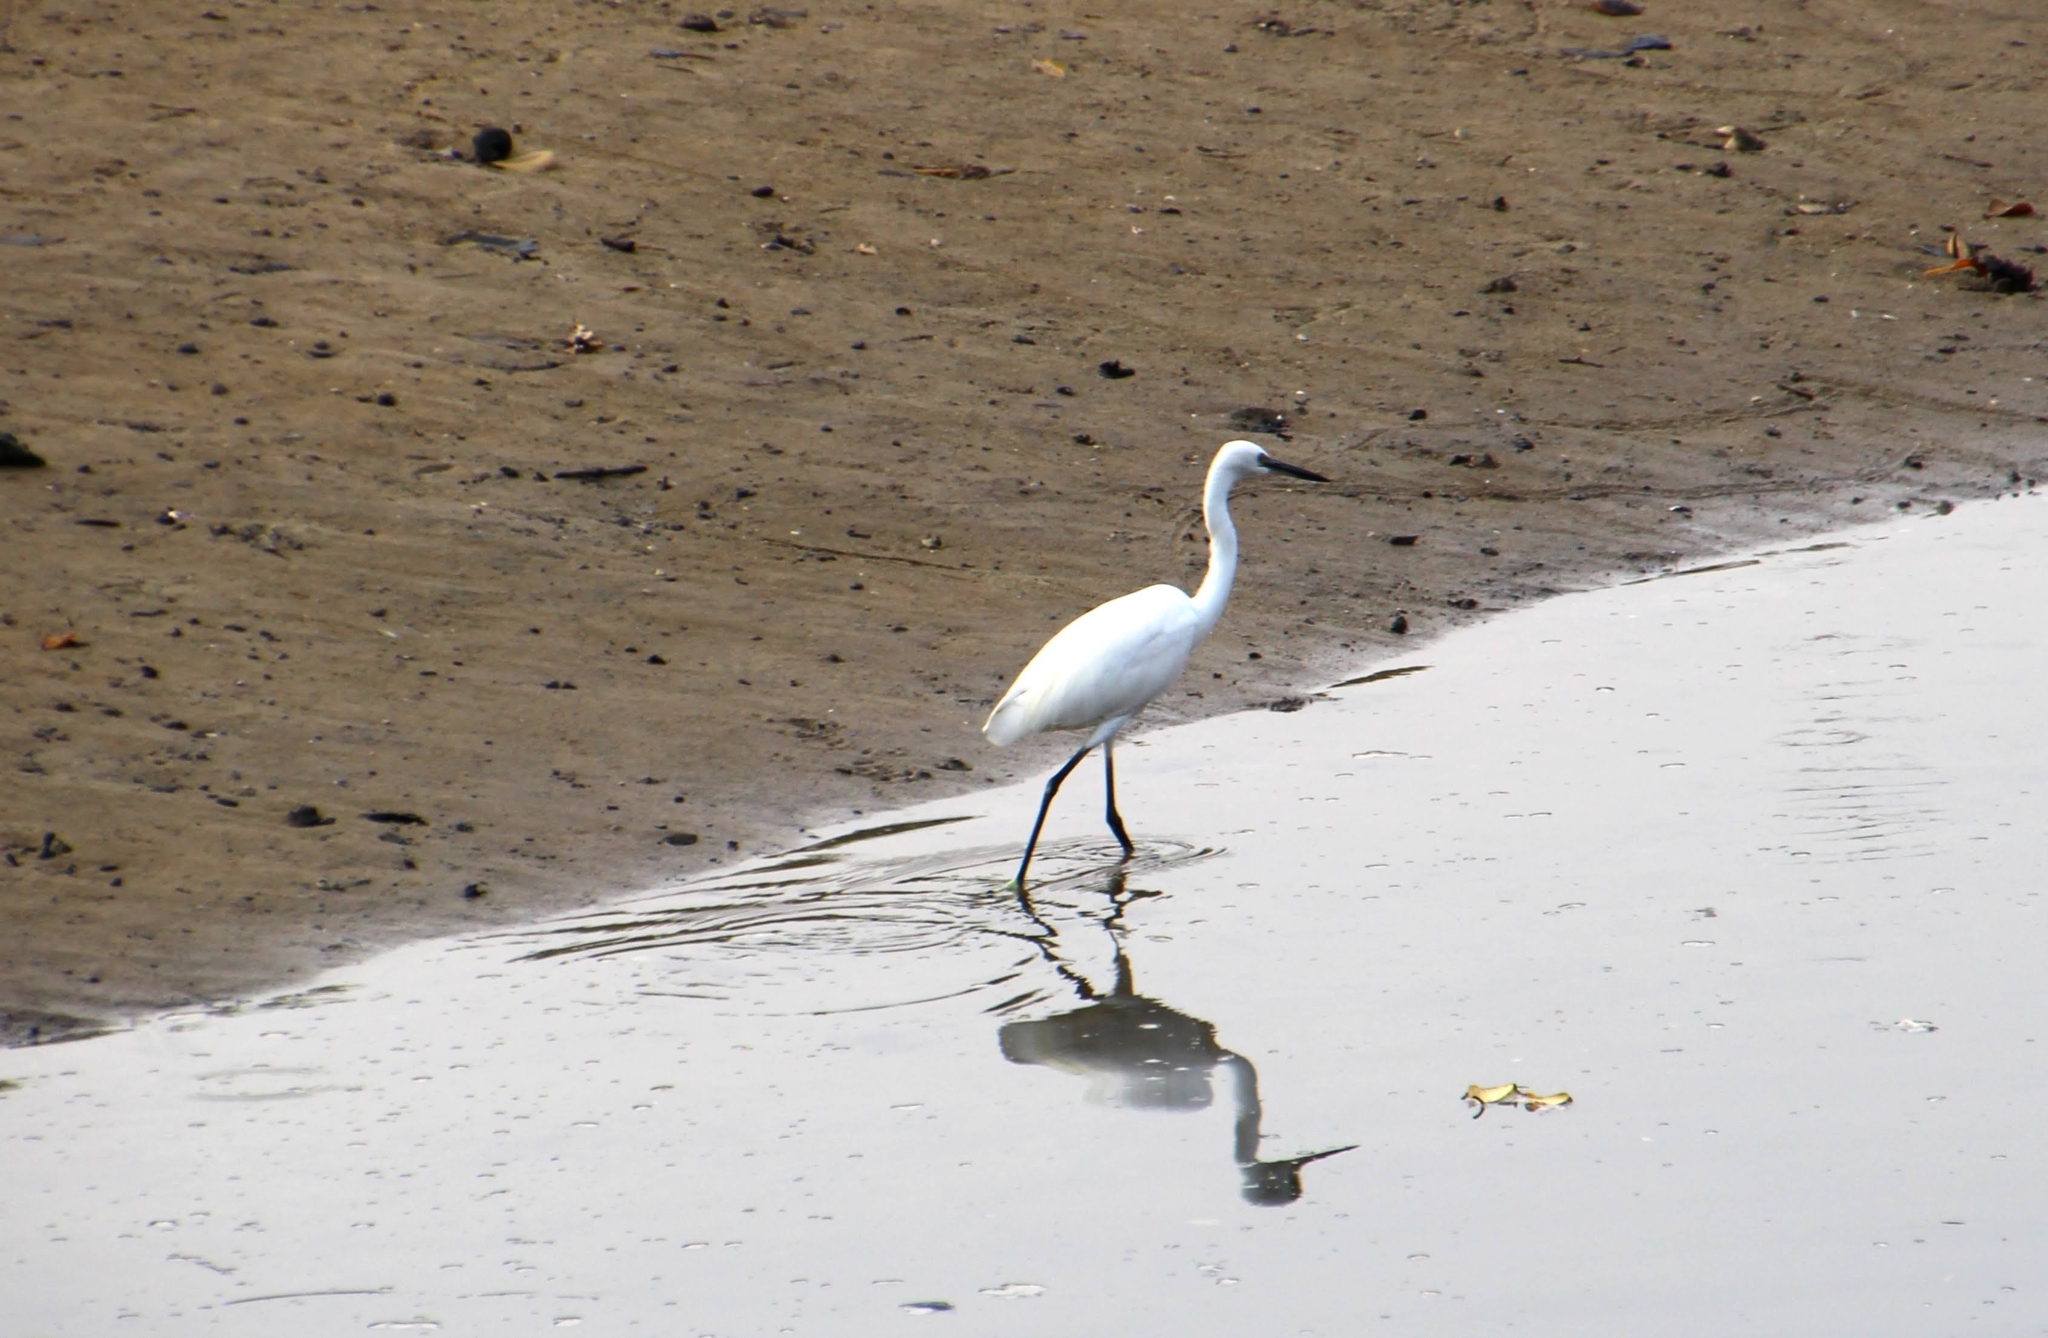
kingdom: Animalia
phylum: Chordata
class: Aves
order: Pelecaniformes
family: Ardeidae
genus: Egretta
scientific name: Egretta garzetta
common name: Little egret
